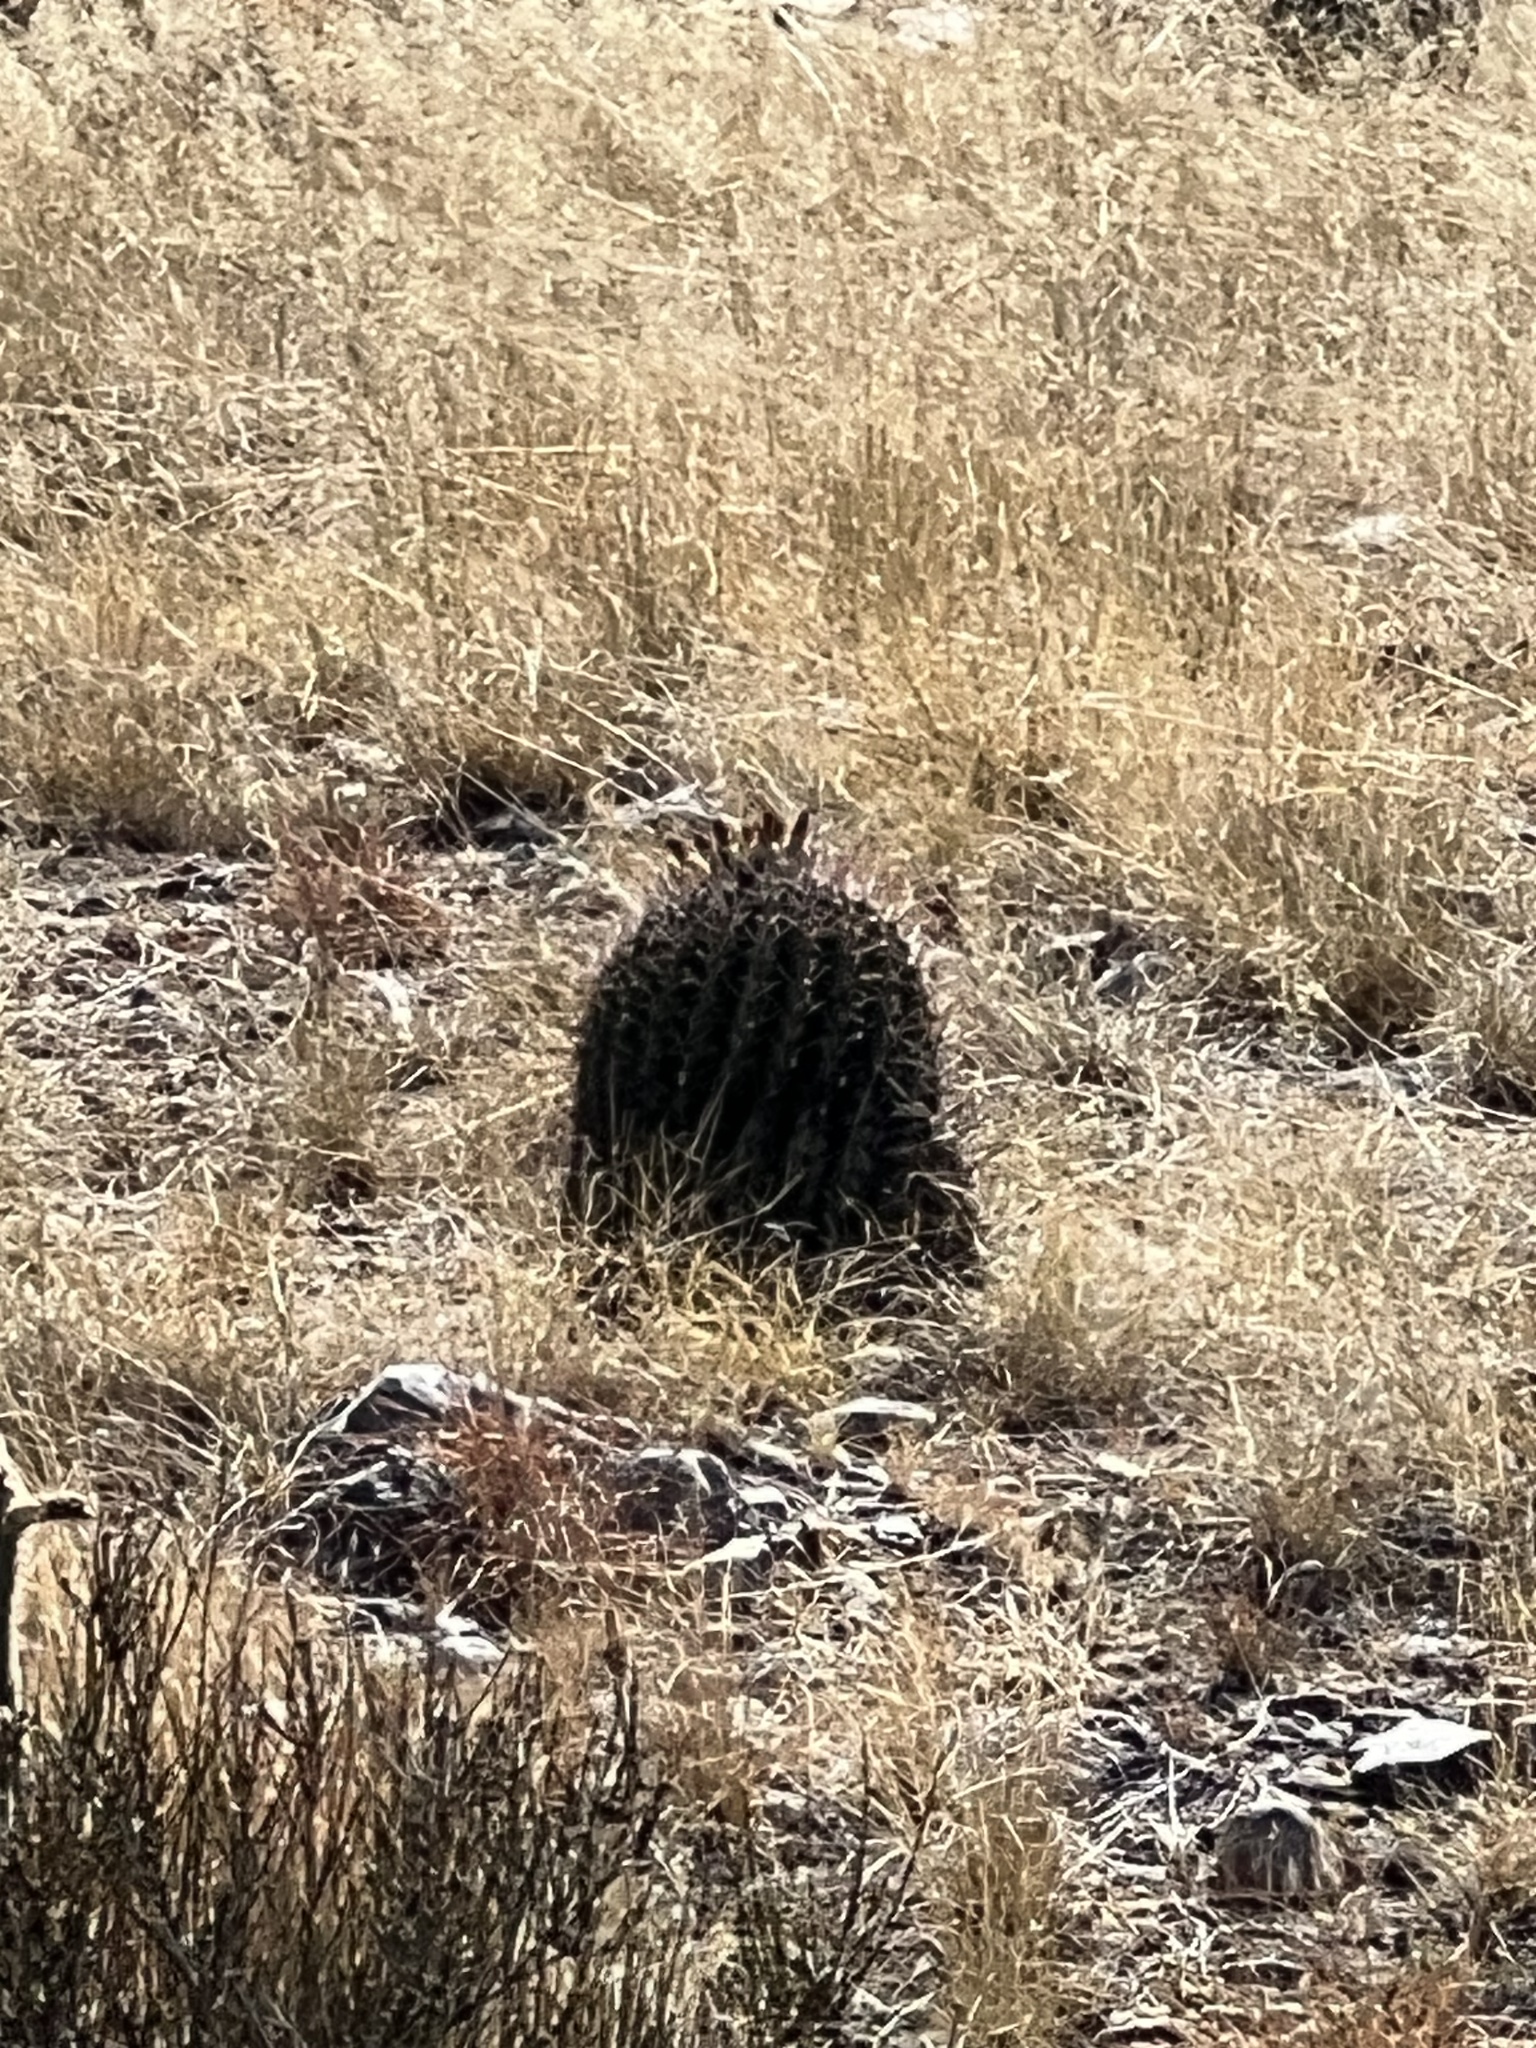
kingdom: Plantae
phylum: Tracheophyta
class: Magnoliopsida
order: Caryophyllales
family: Cactaceae
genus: Ferocactus
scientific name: Ferocactus wislizeni
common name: Candy barrel cactus
